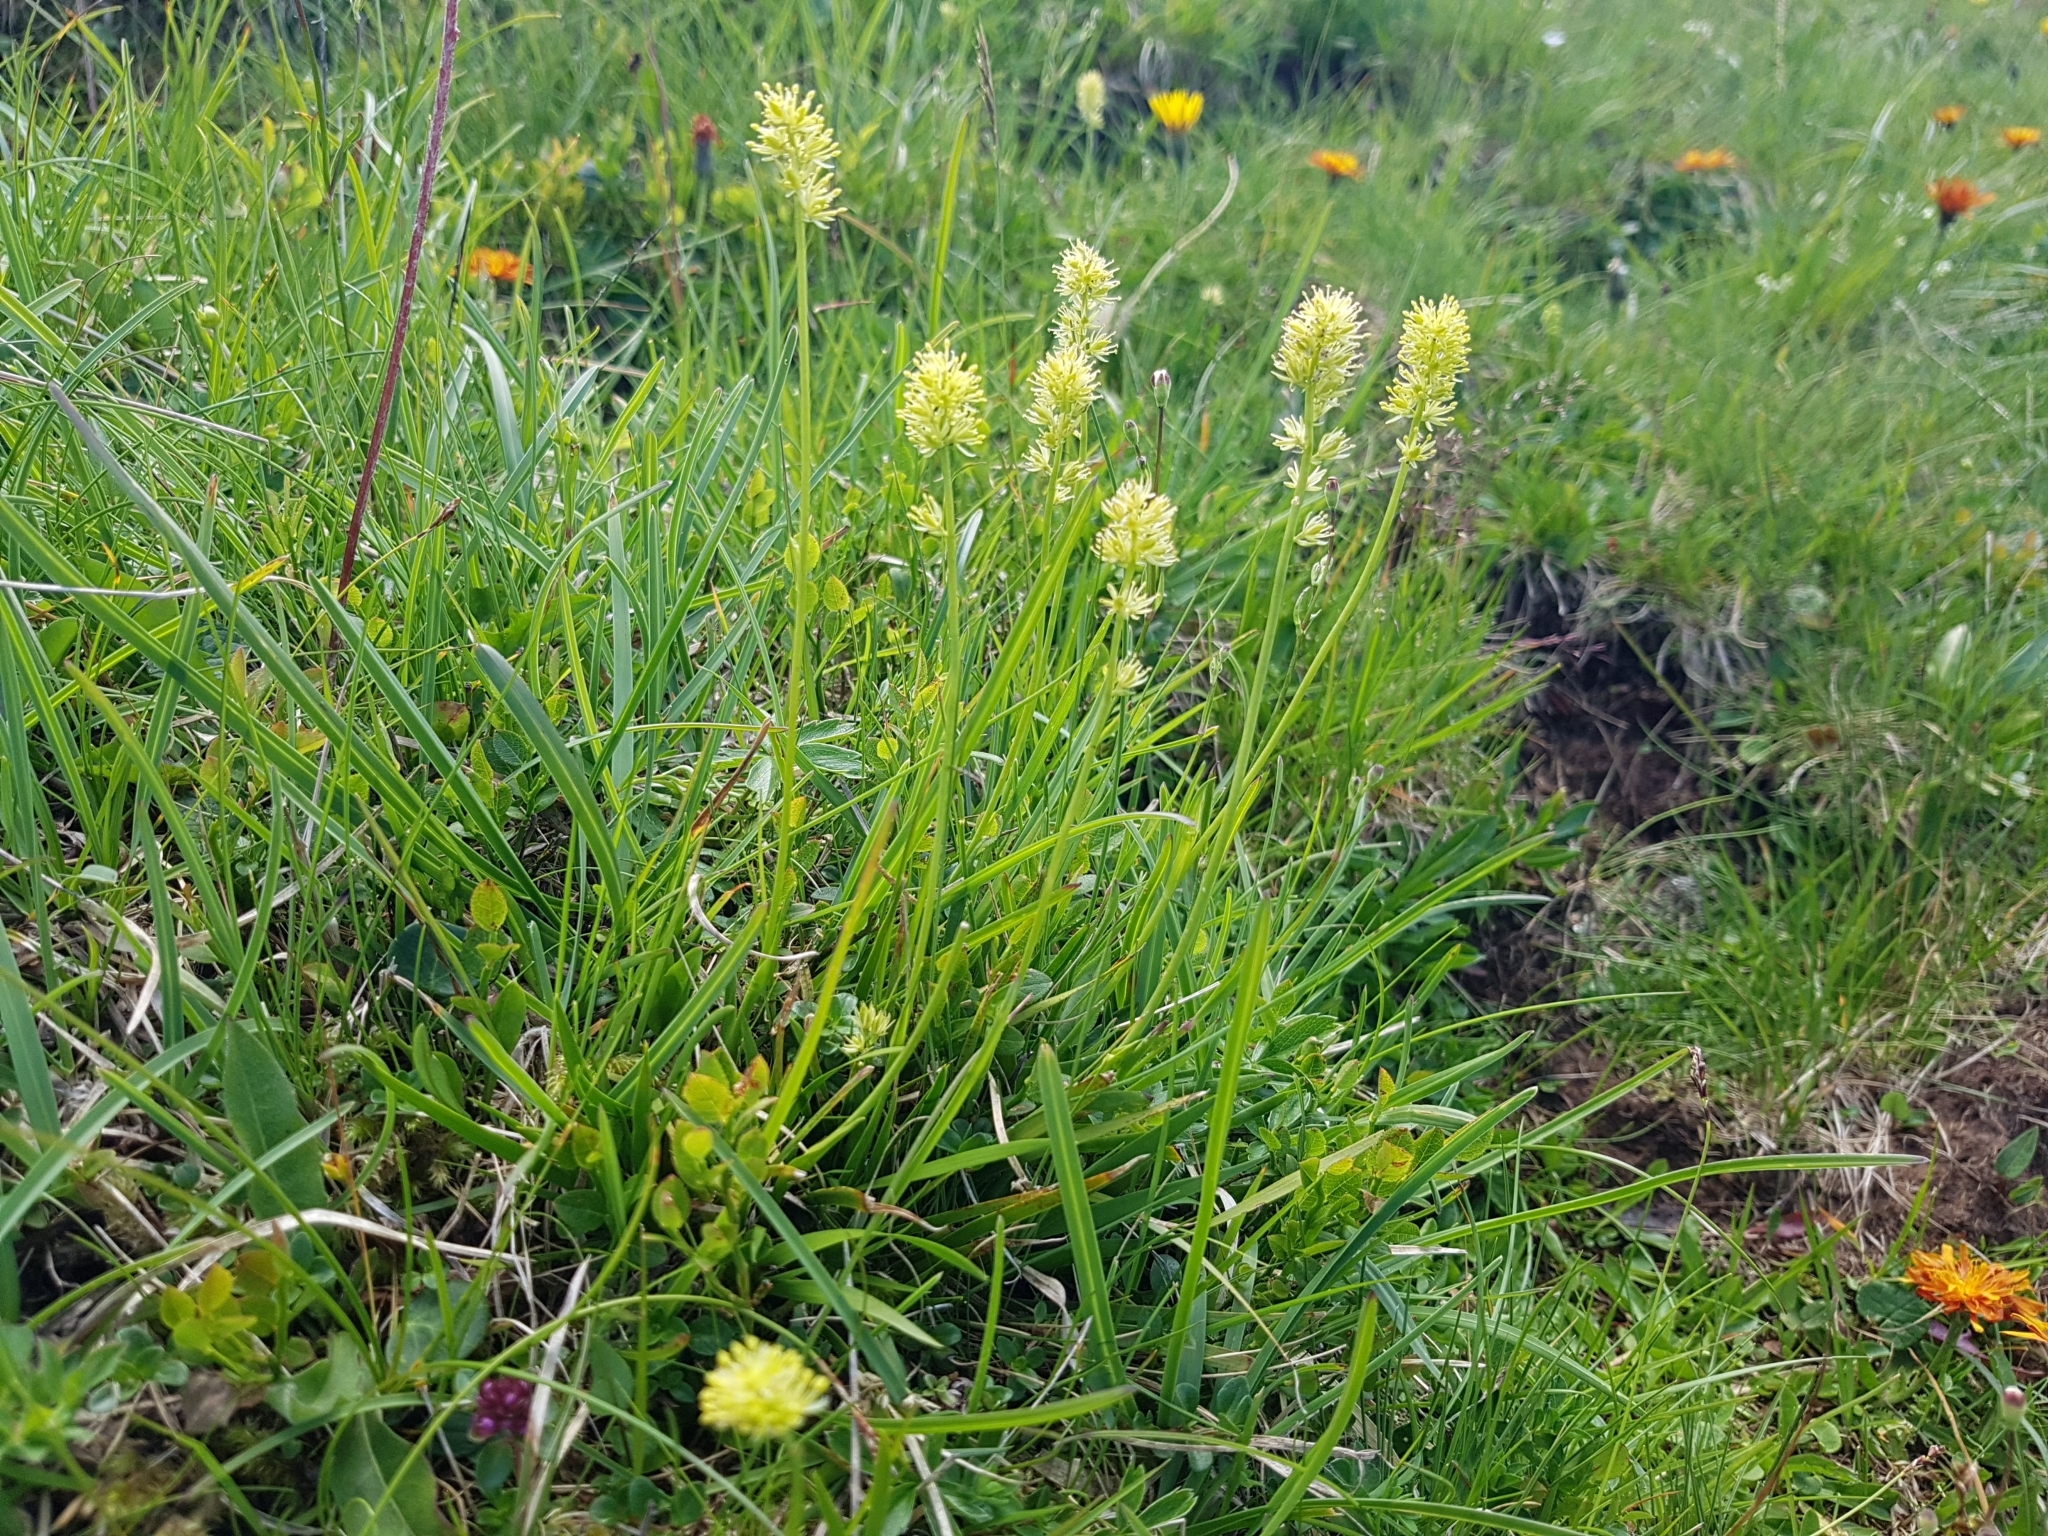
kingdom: Plantae
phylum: Tracheophyta
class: Liliopsida
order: Alismatales
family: Tofieldiaceae
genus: Tofieldia
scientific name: Tofieldia calyculata
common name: German-asphodel
